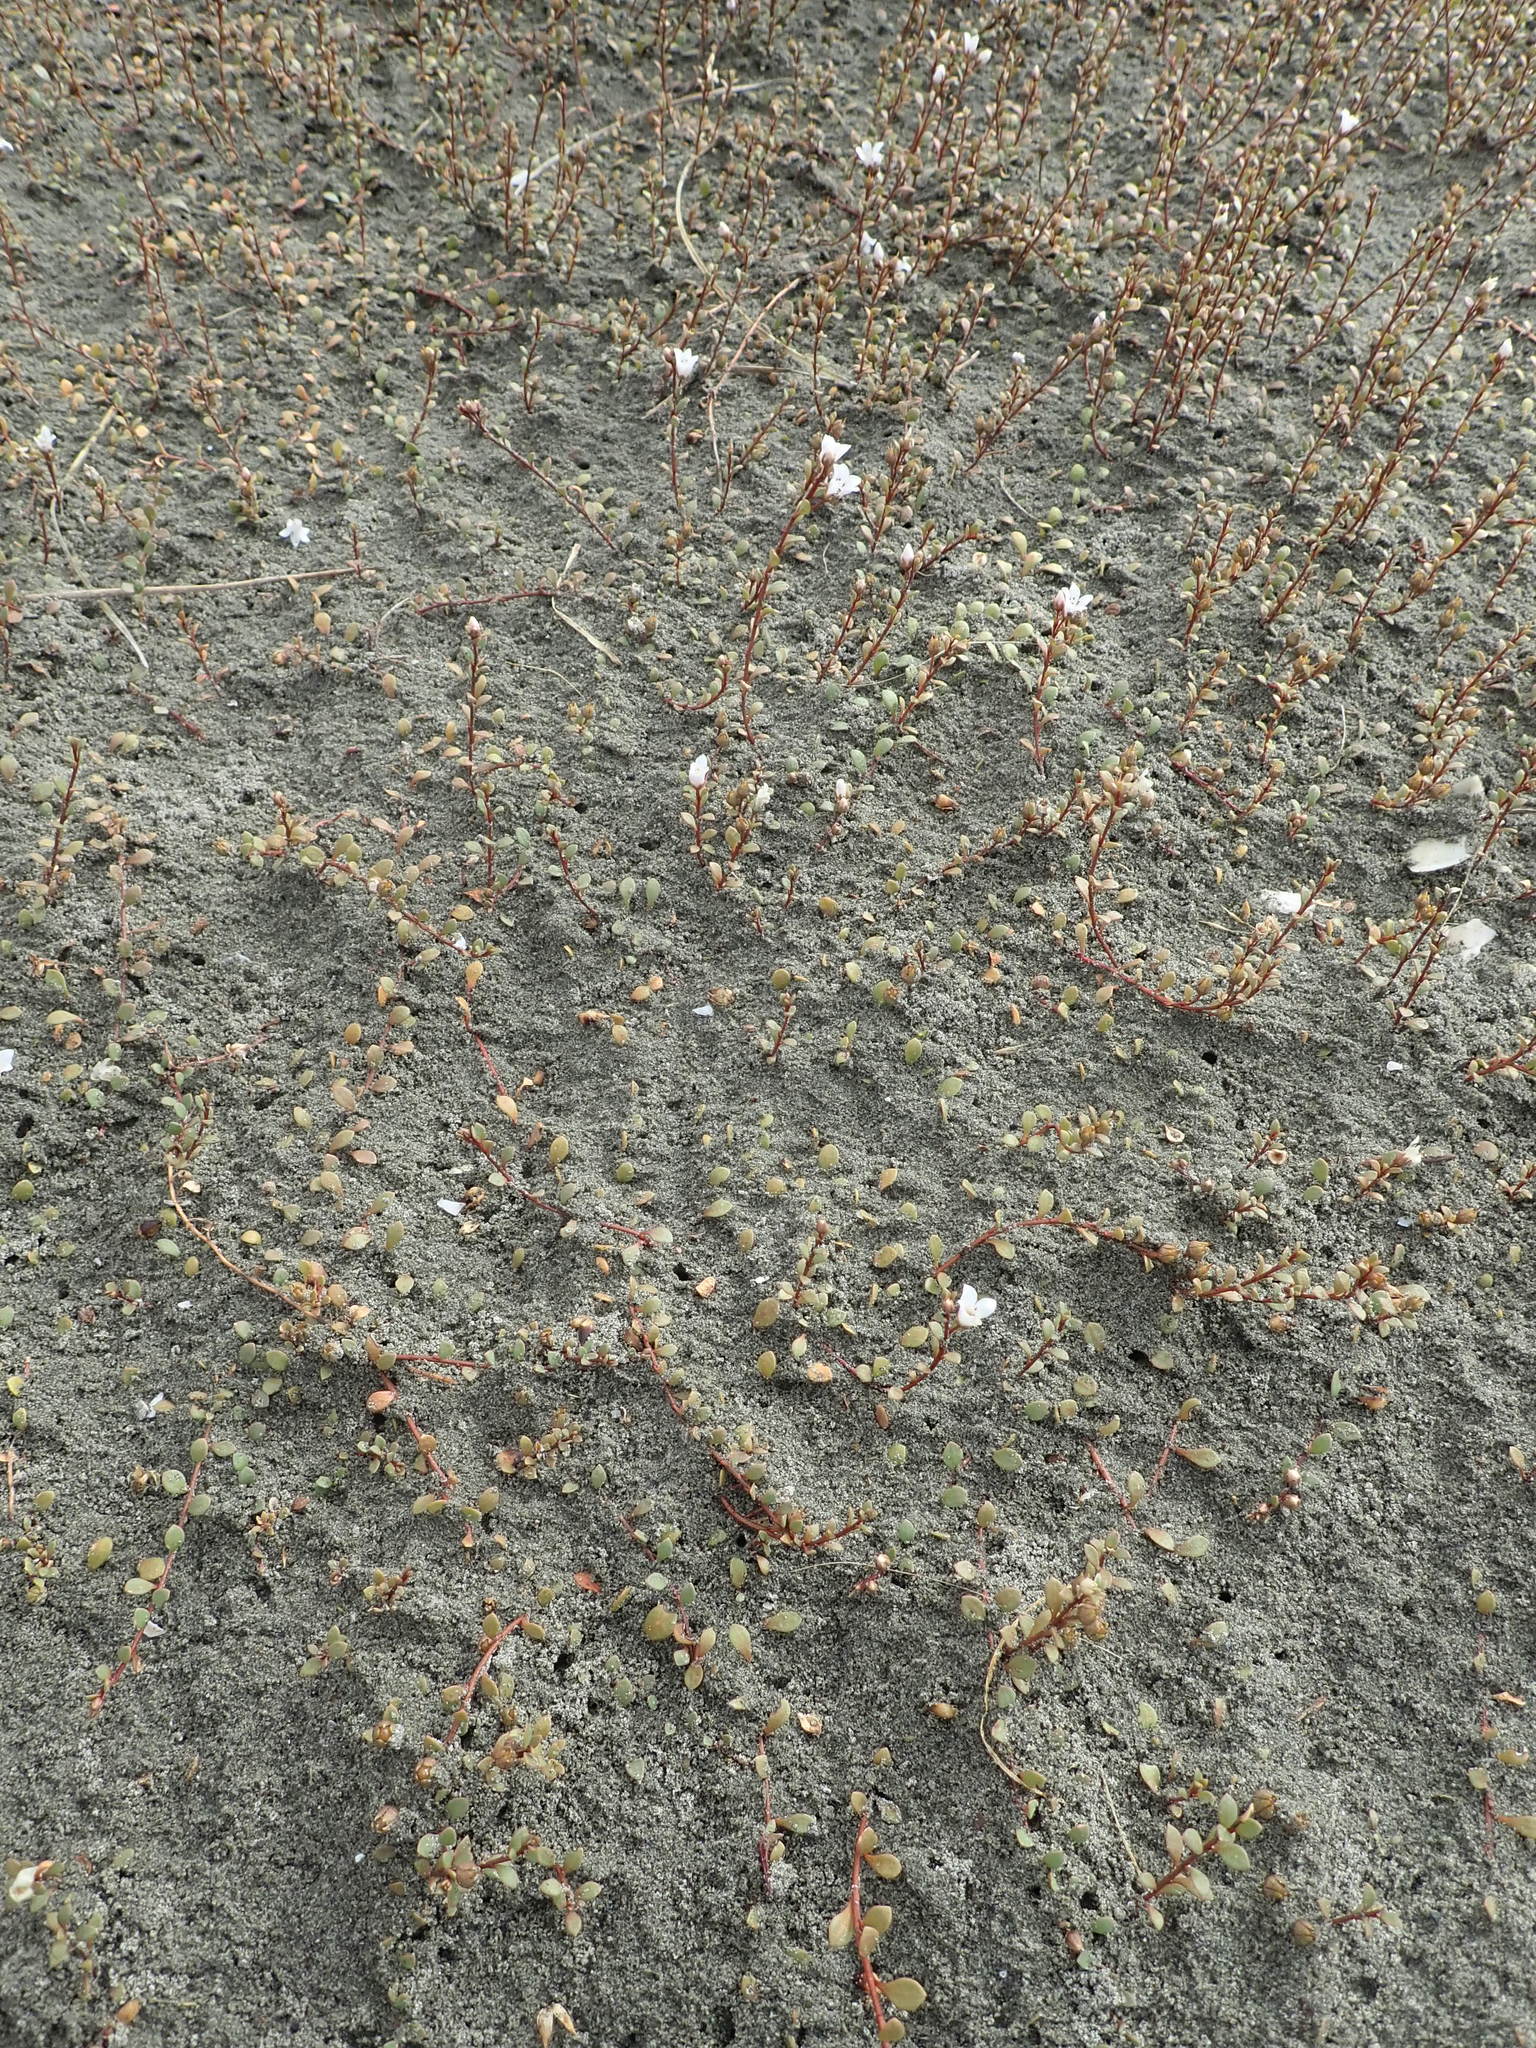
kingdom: Plantae
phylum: Tracheophyta
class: Magnoliopsida
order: Ericales
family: Primulaceae
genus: Samolus
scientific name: Samolus repens
